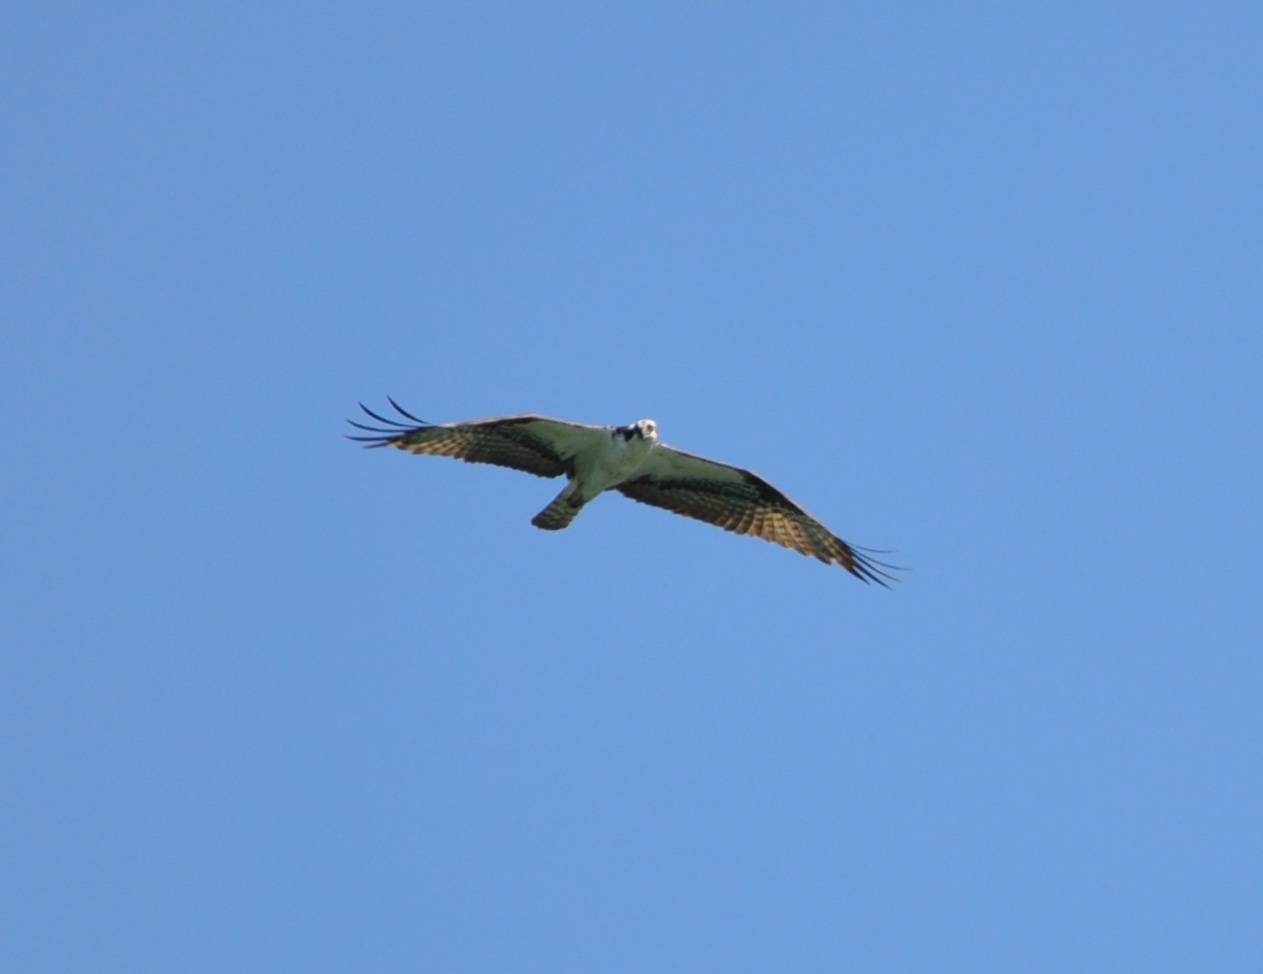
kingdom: Animalia
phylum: Chordata
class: Aves
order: Accipitriformes
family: Pandionidae
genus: Pandion
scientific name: Pandion haliaetus
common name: Osprey
